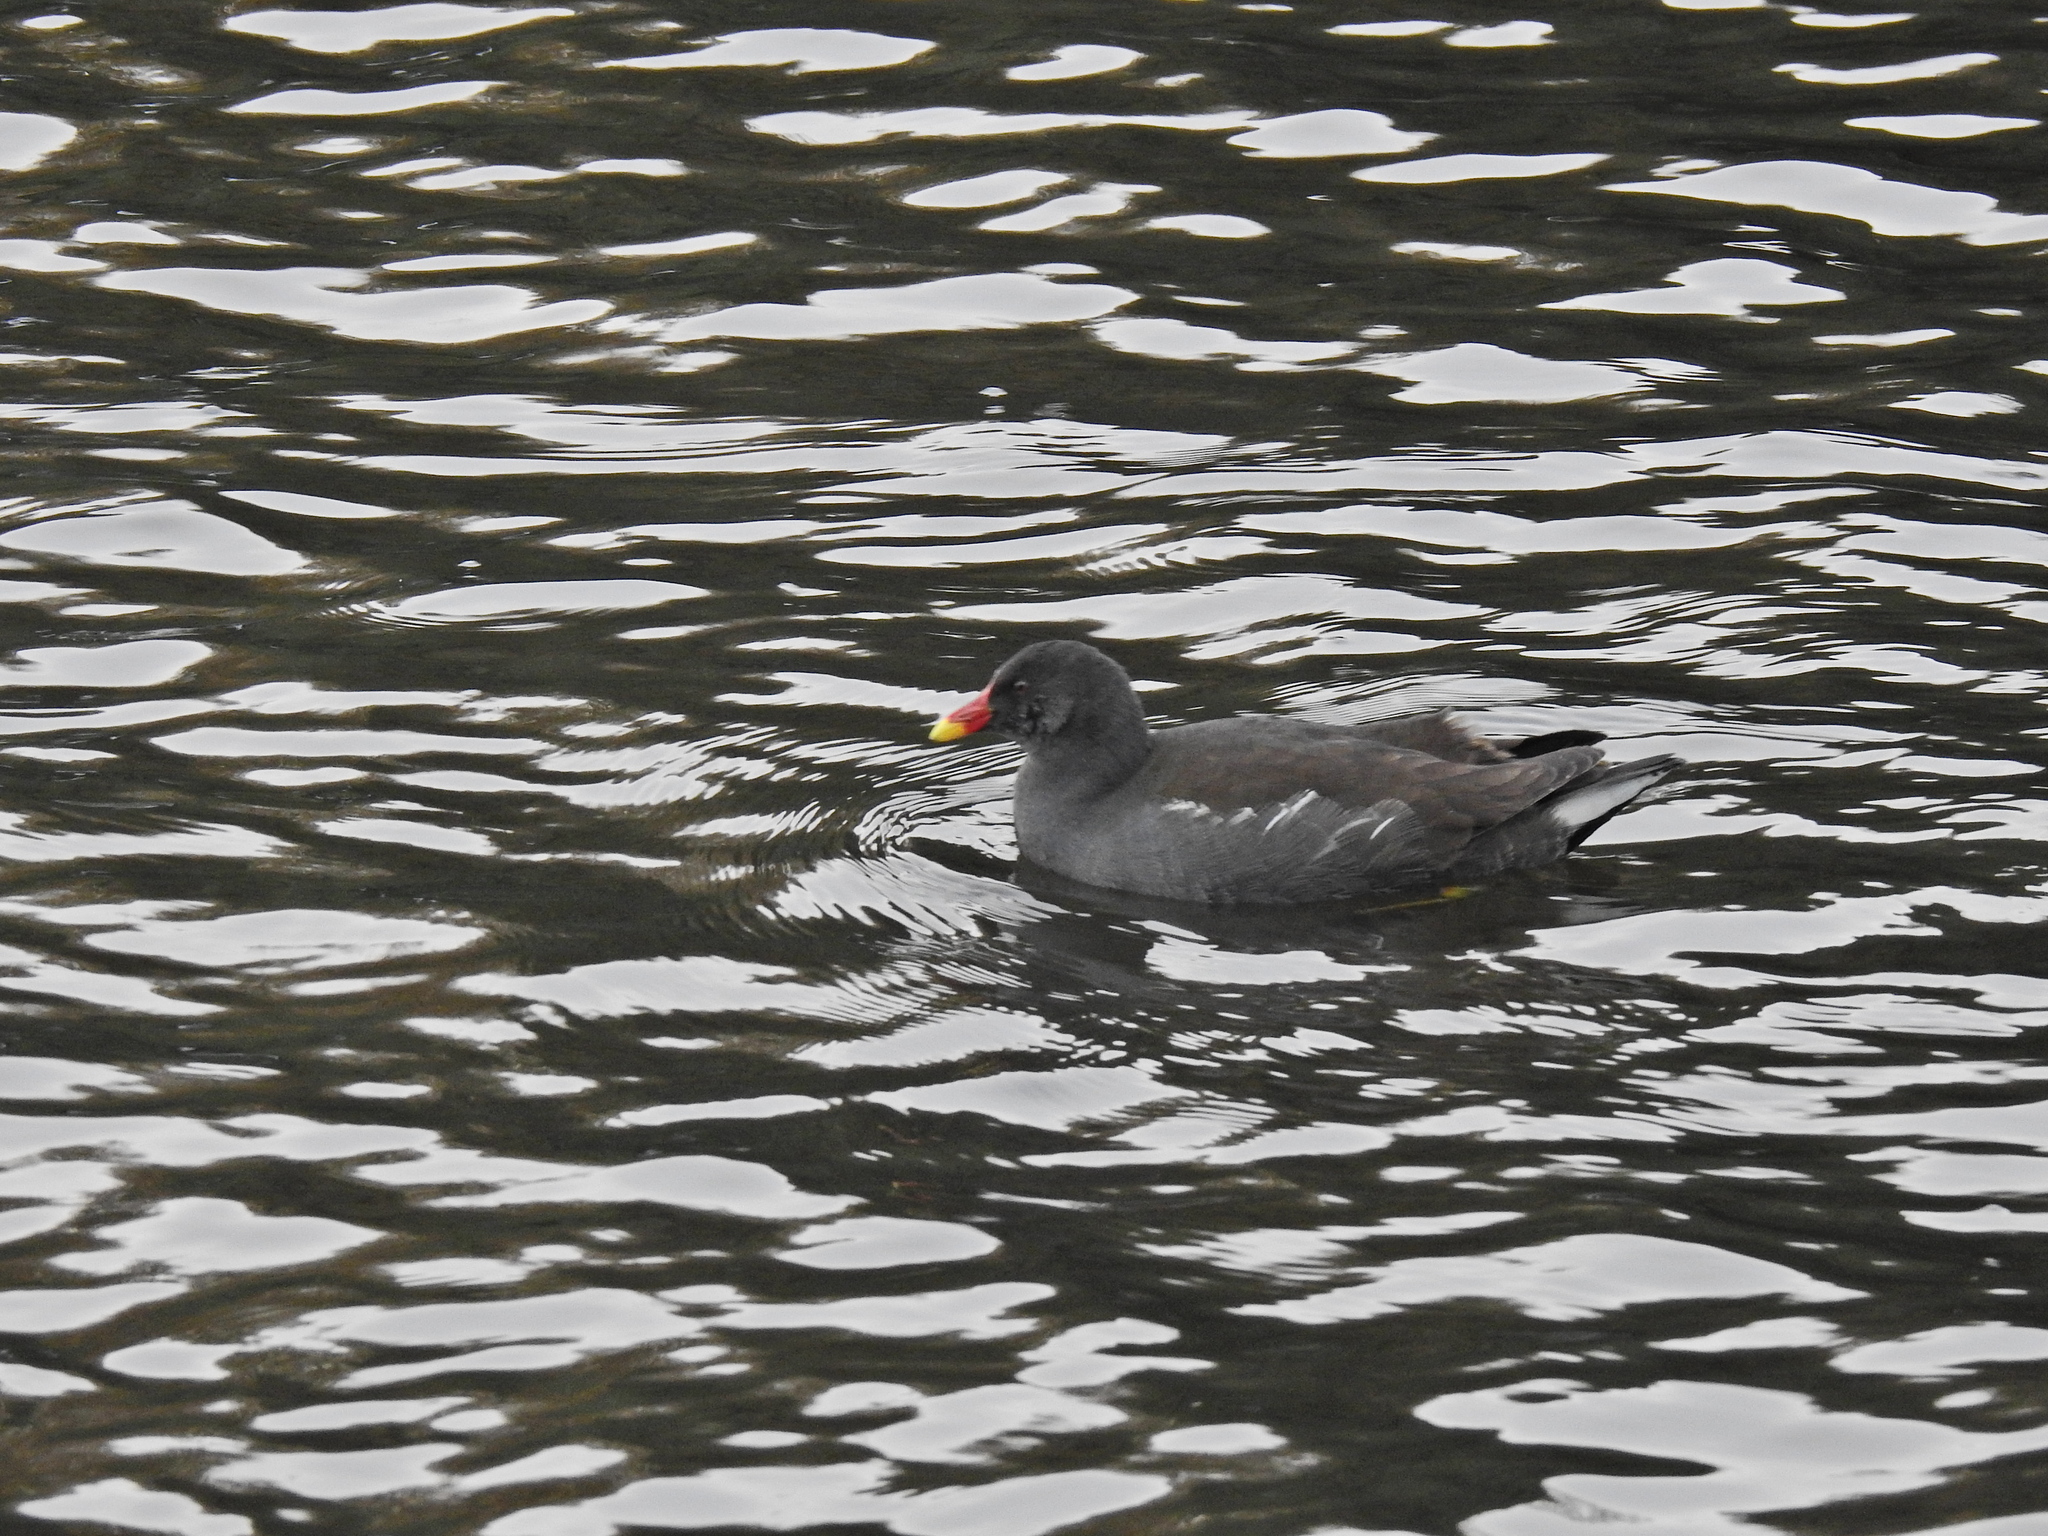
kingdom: Animalia
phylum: Chordata
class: Aves
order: Gruiformes
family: Rallidae
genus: Gallinula
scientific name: Gallinula chloropus
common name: Common moorhen
